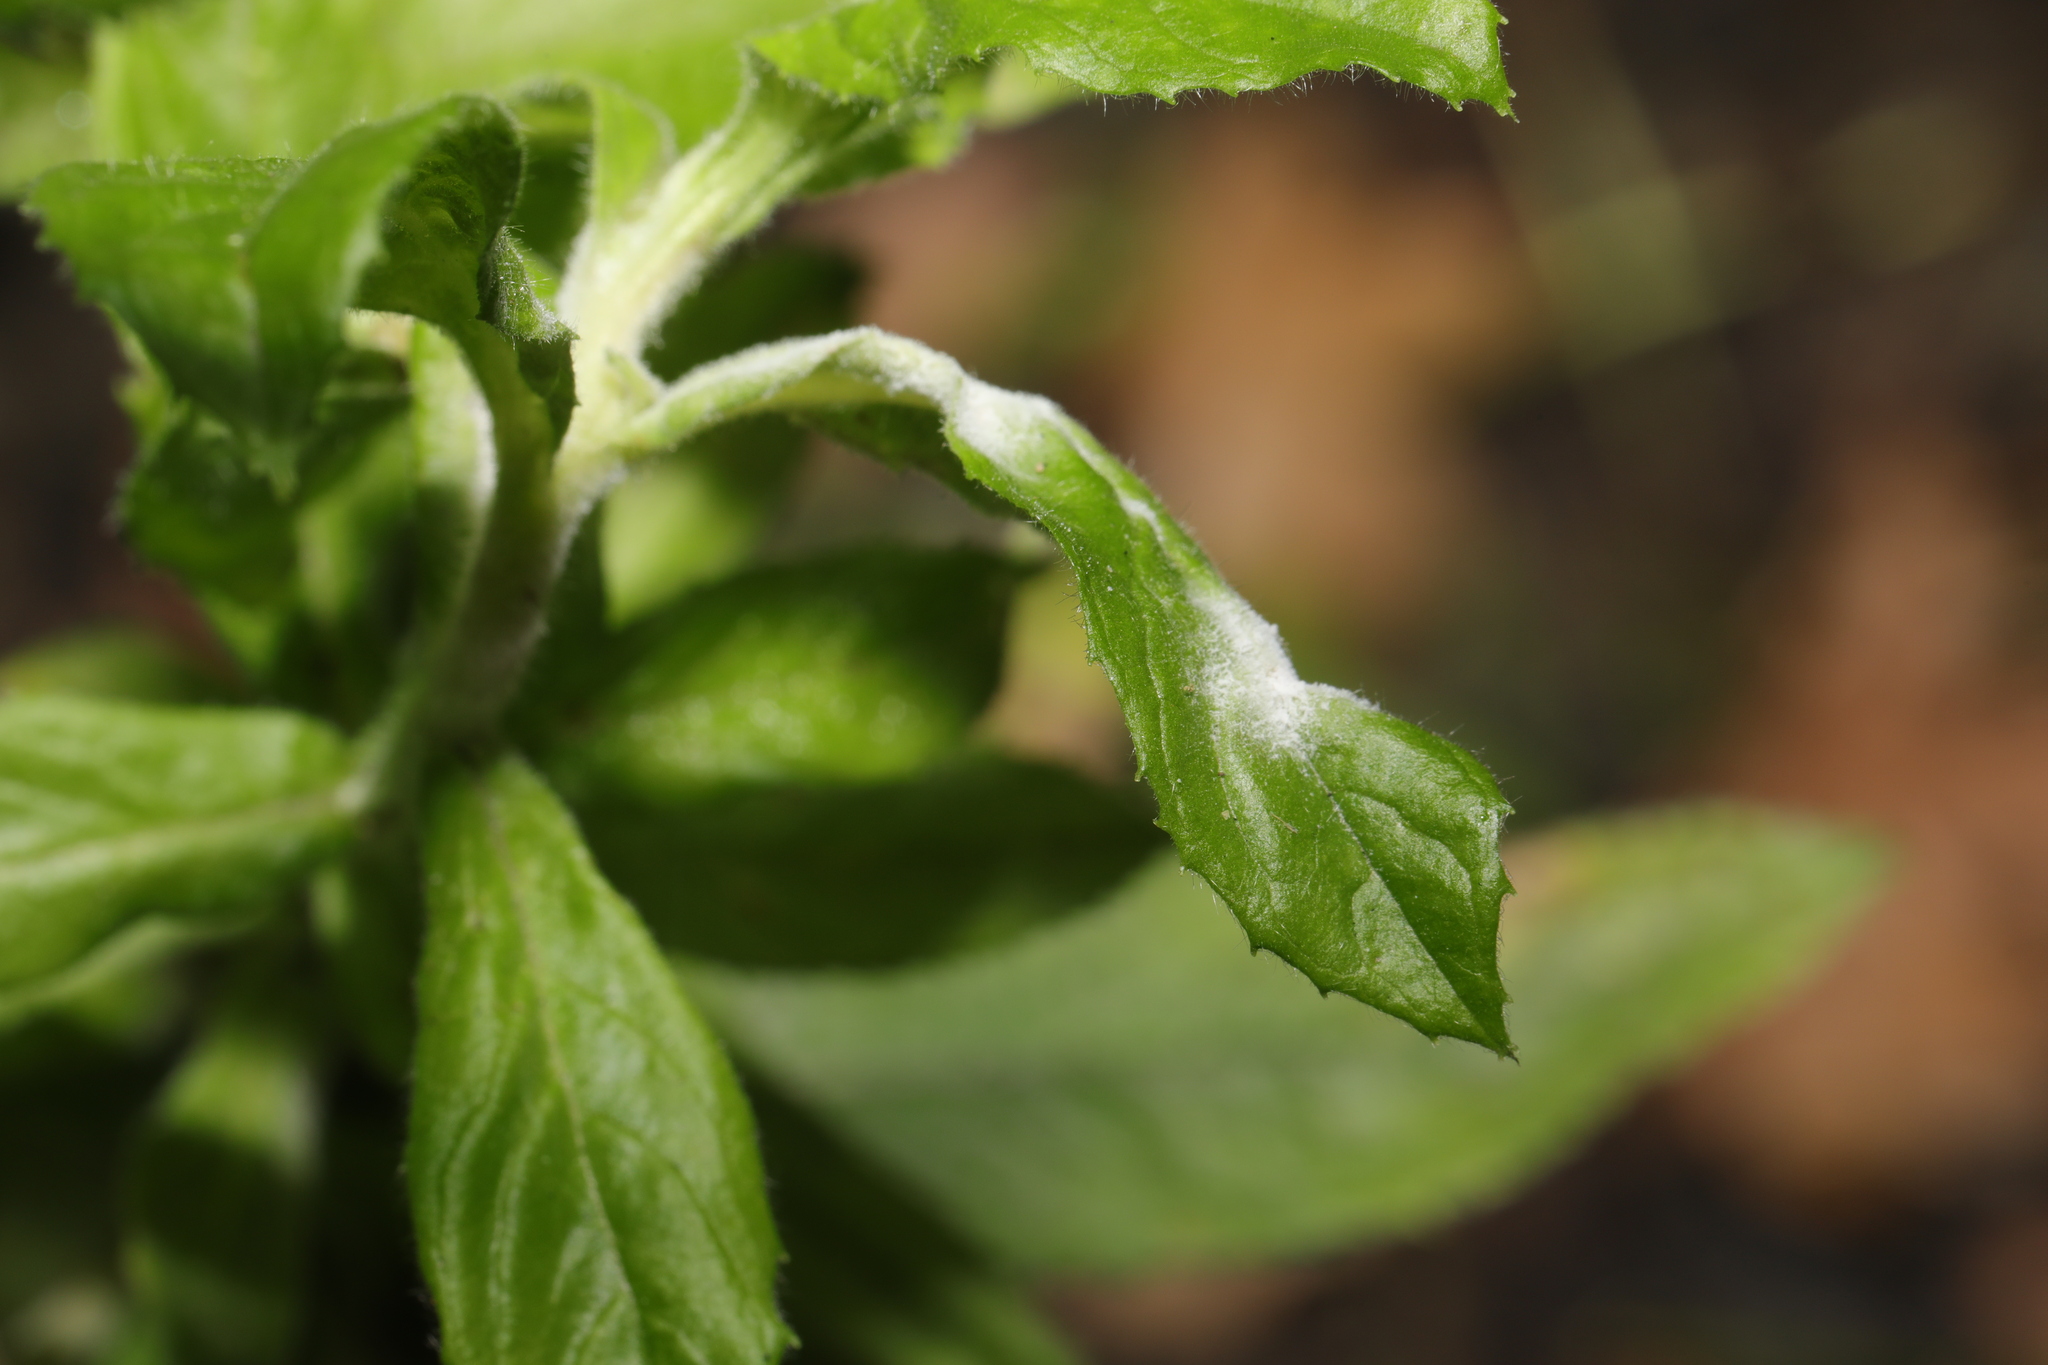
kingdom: Fungi
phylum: Ascomycota
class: Leotiomycetes
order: Helotiales
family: Erysiphaceae
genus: Podosphaera
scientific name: Podosphaera epilobii
